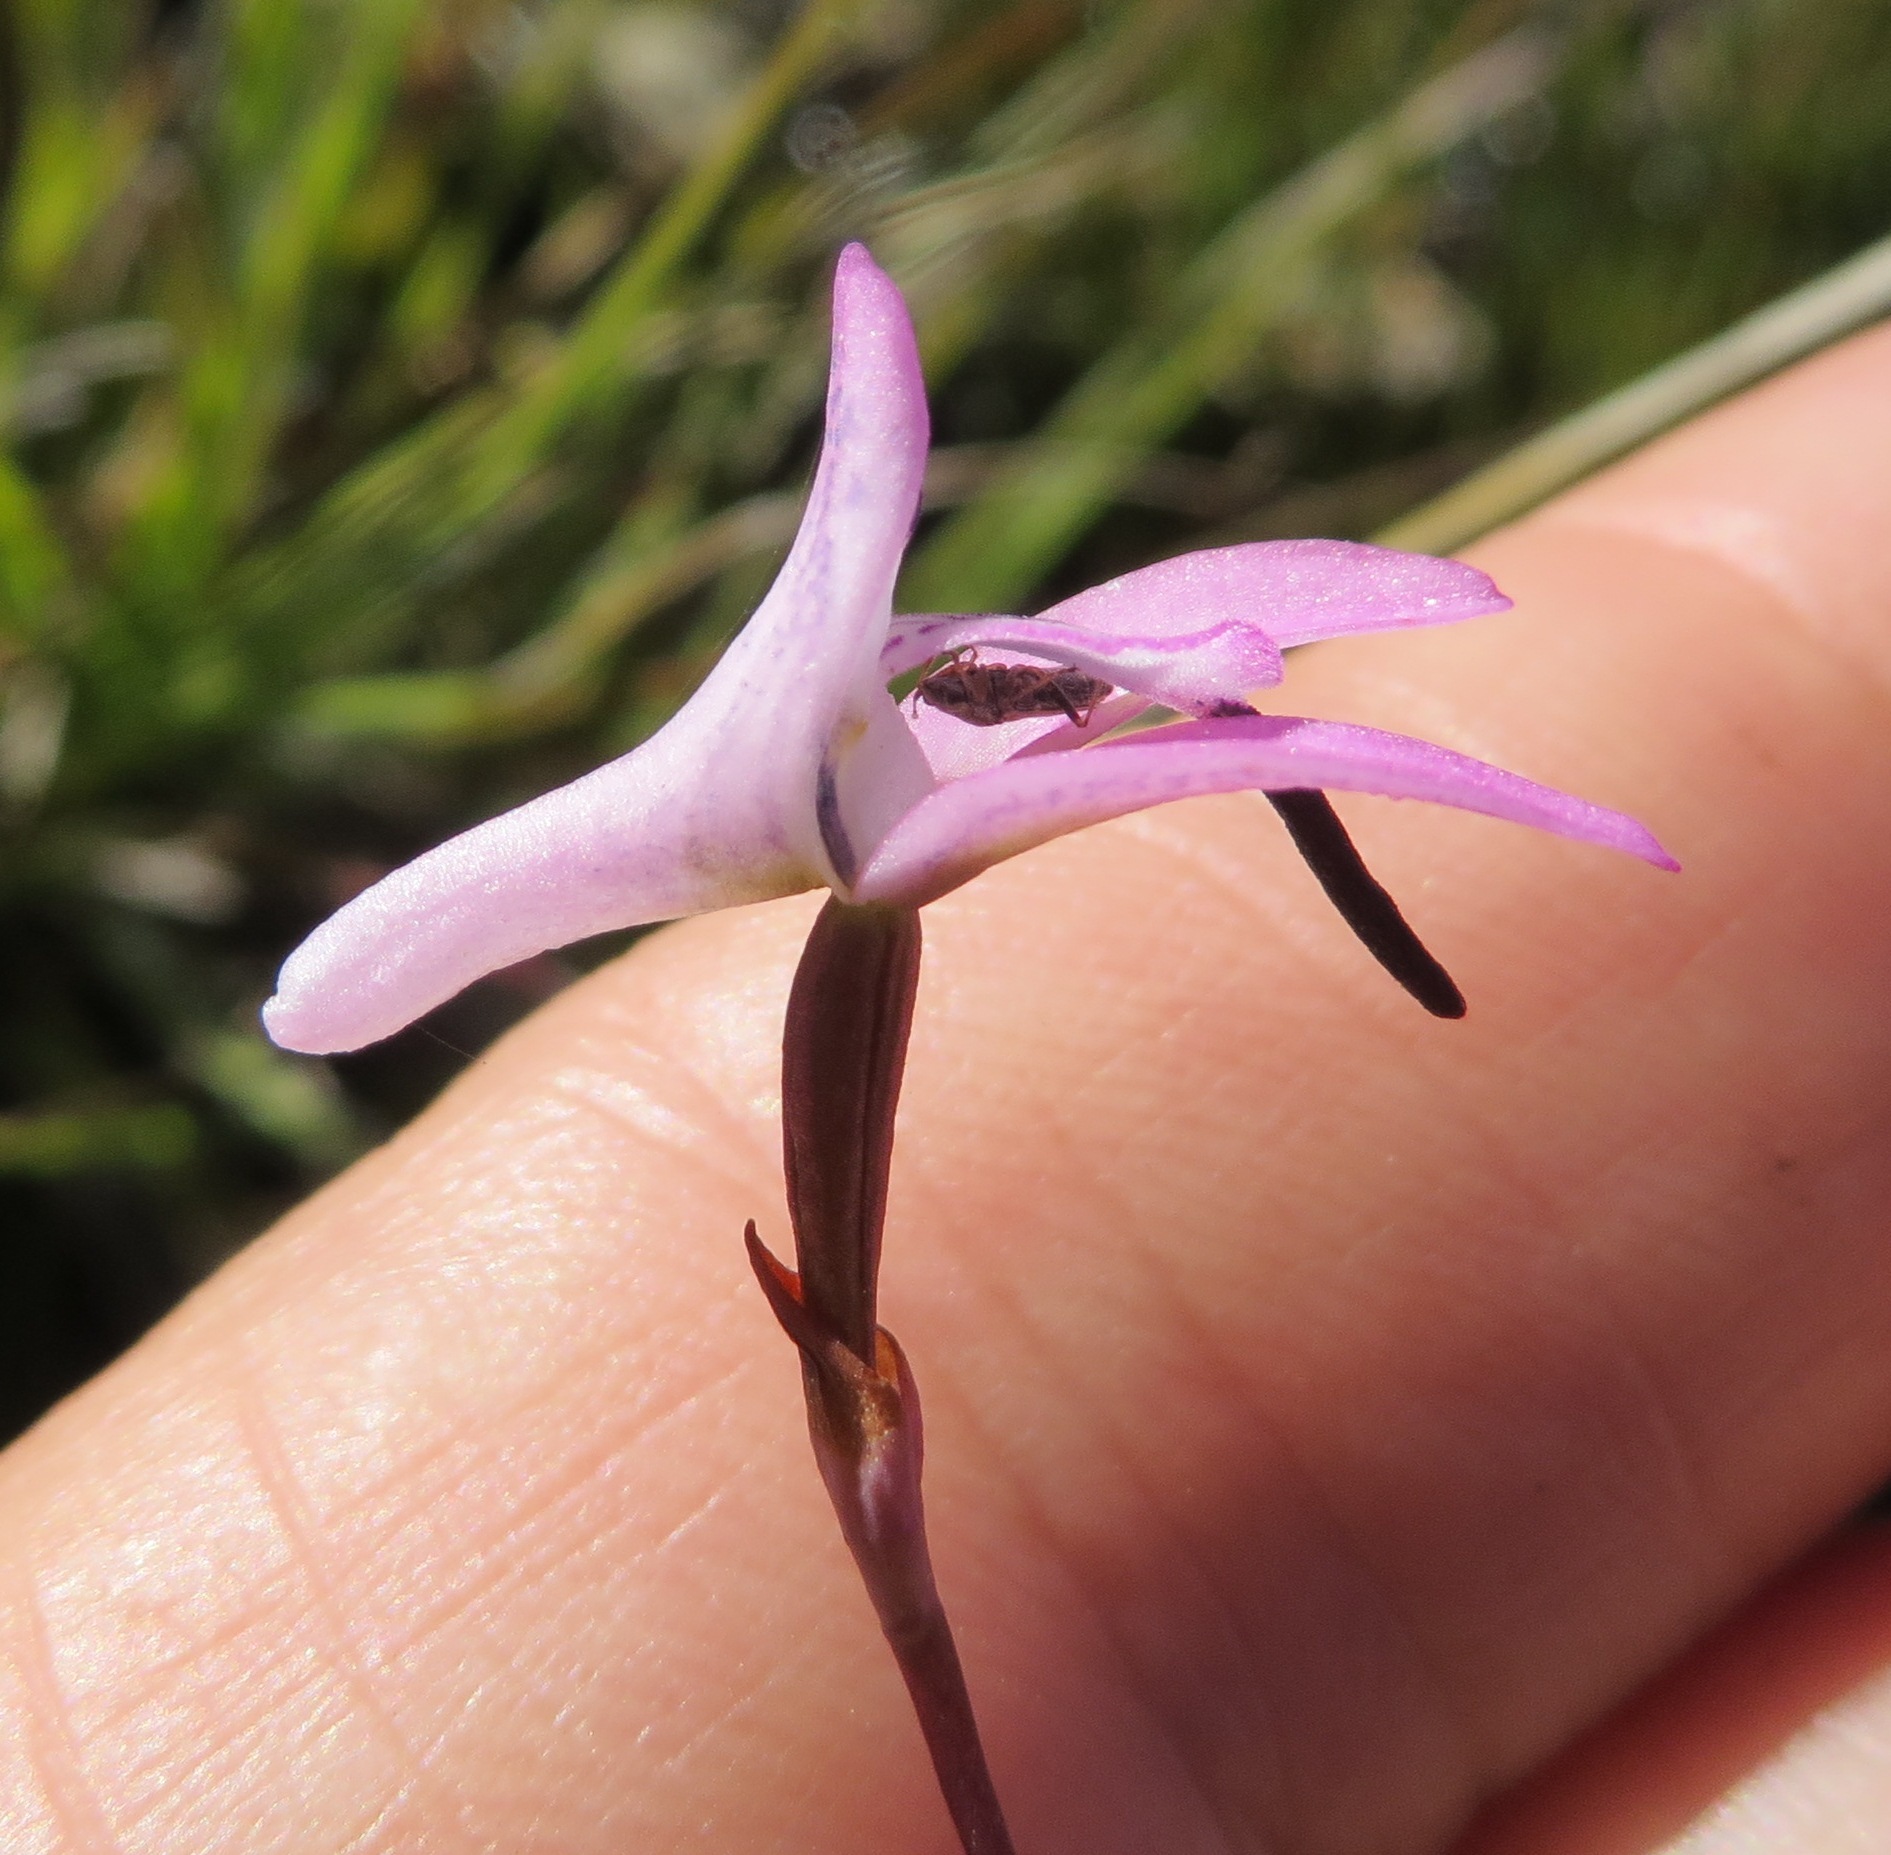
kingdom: Plantae
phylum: Tracheophyta
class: Liliopsida
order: Asparagales
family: Orchidaceae
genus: Disa
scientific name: Disa inflexa
